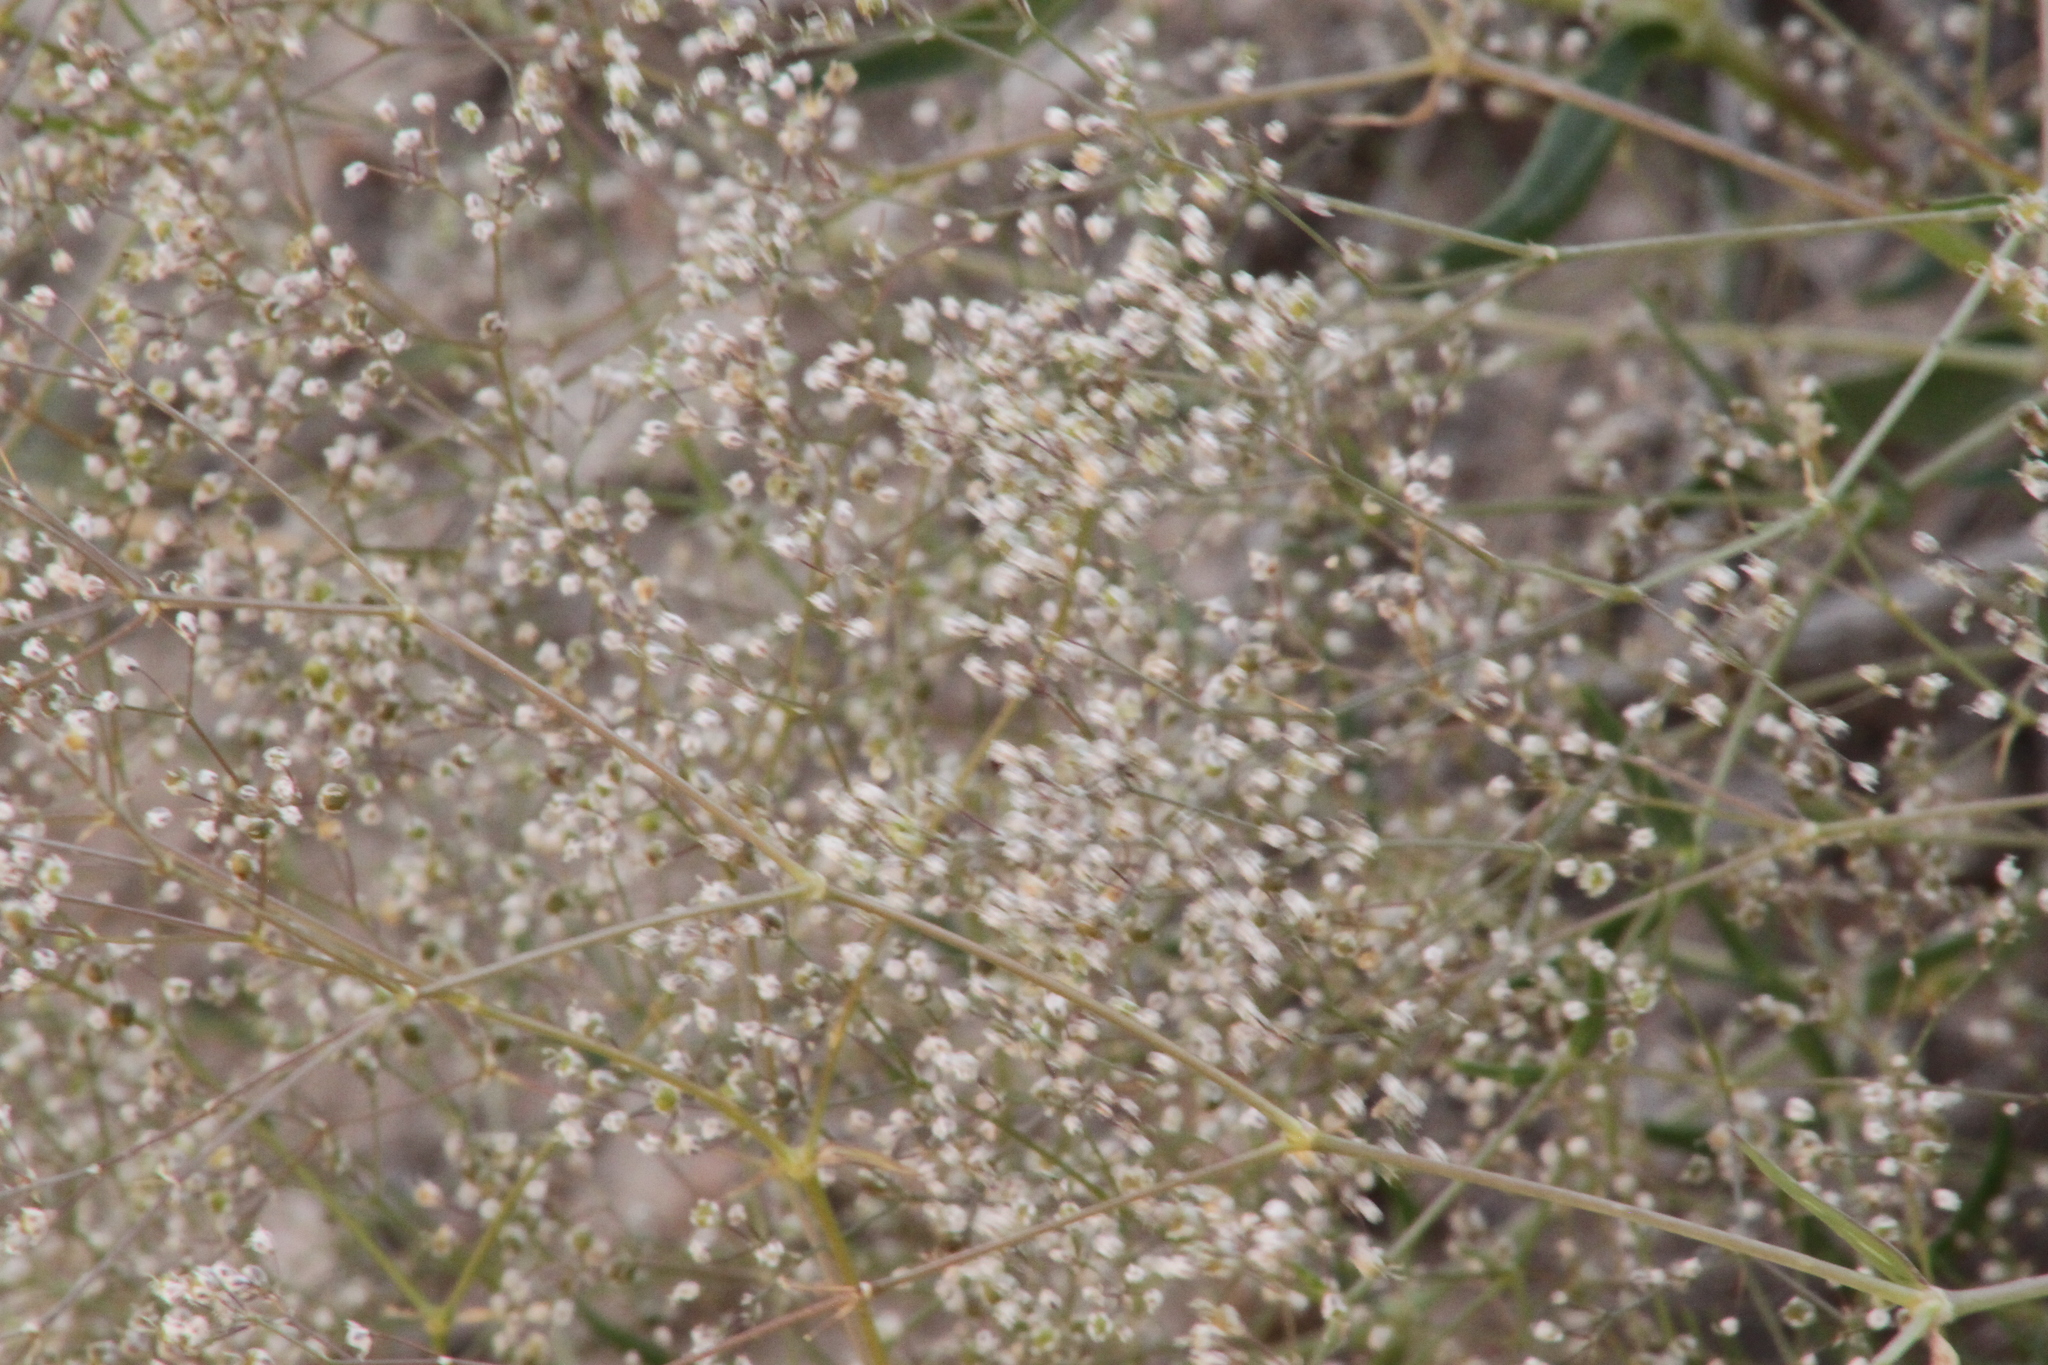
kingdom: Plantae
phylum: Tracheophyta
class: Magnoliopsida
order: Caryophyllales
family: Caryophyllaceae
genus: Gypsophila
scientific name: Gypsophila paniculata
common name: Baby's-breath
